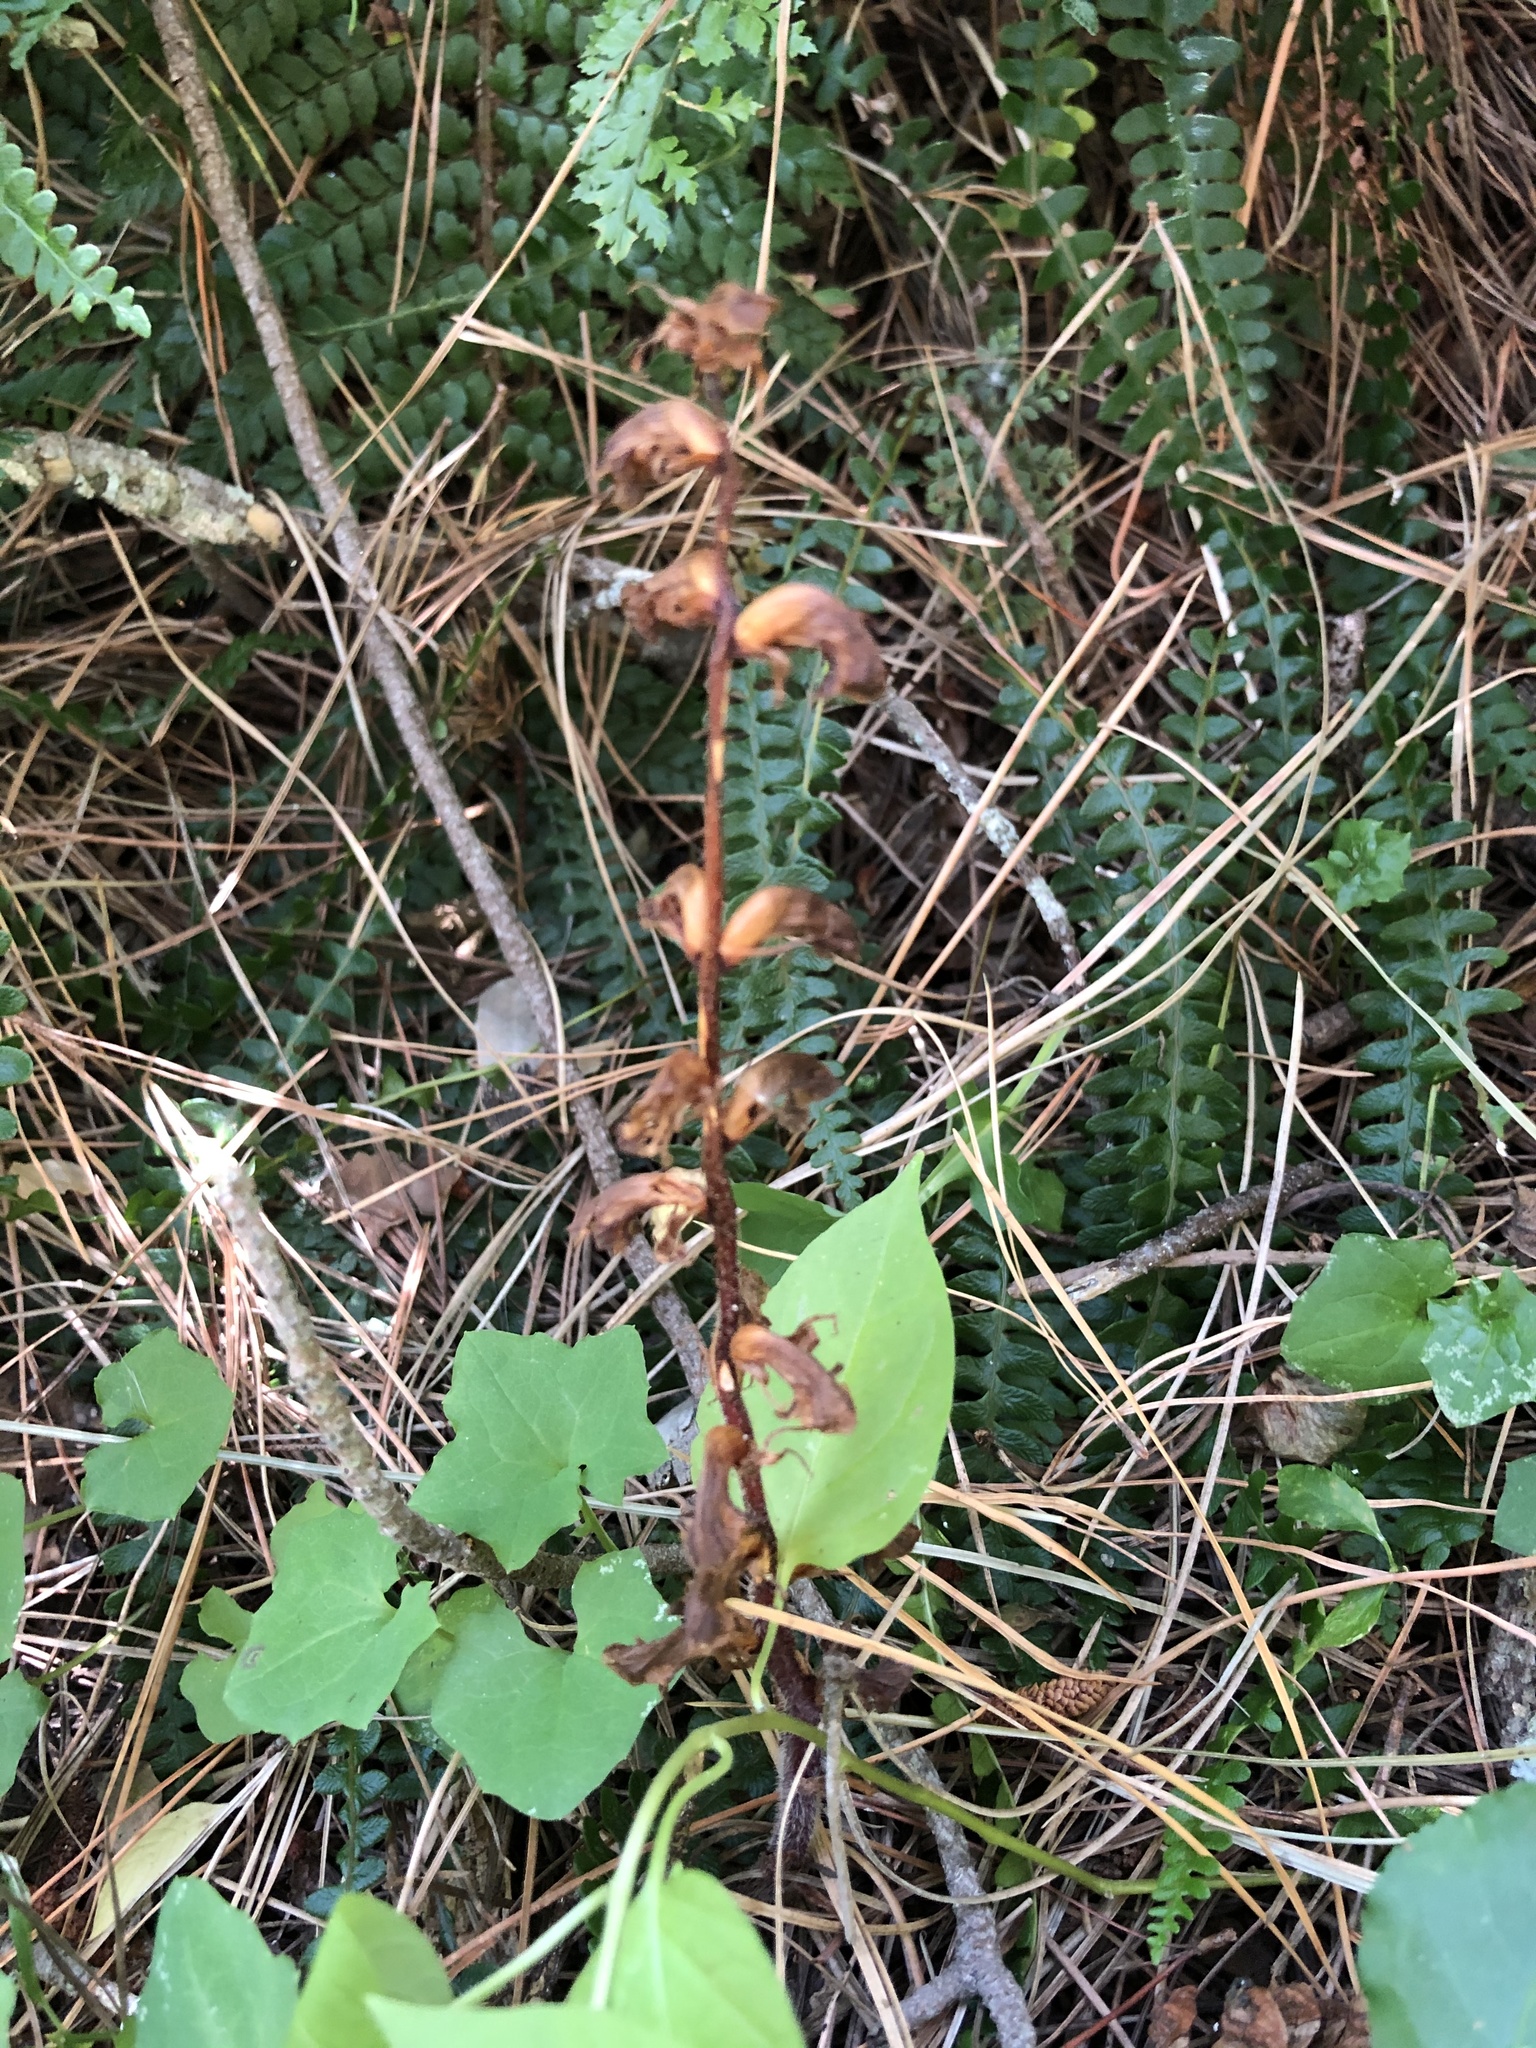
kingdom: Plantae
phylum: Tracheophyta
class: Magnoliopsida
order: Lamiales
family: Orobanchaceae
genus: Orobanche
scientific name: Orobanche minor
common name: Common broomrape
